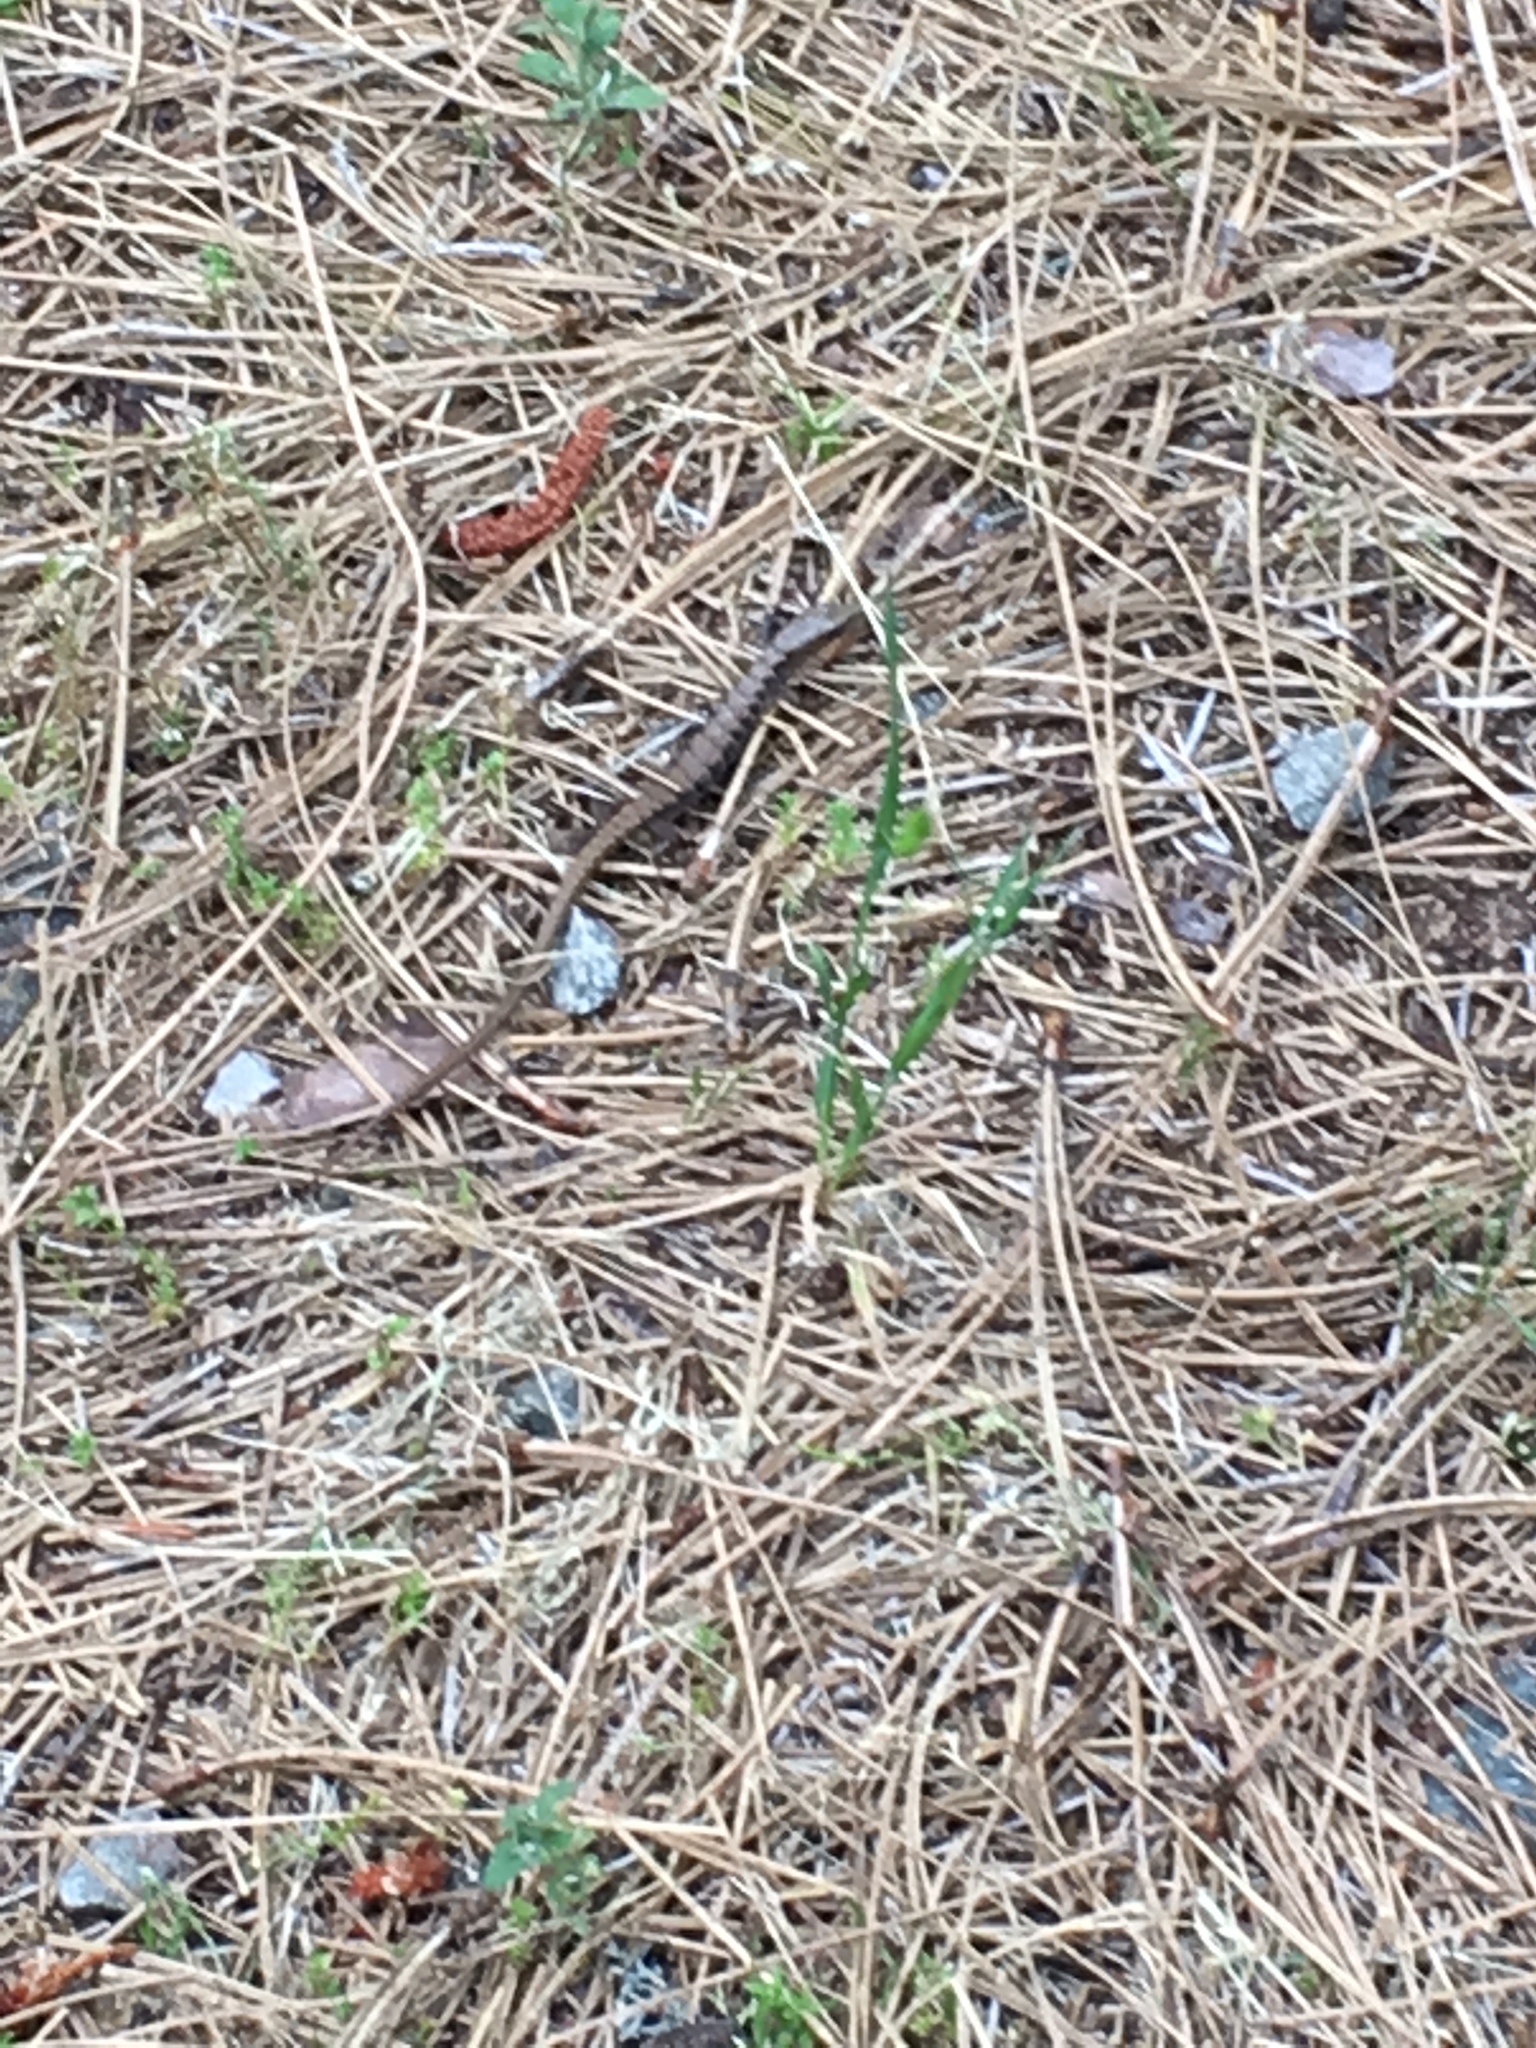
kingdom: Animalia
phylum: Chordata
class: Squamata
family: Anguidae
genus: Elgaria
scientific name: Elgaria multicarinata
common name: Southern alligator lizard
